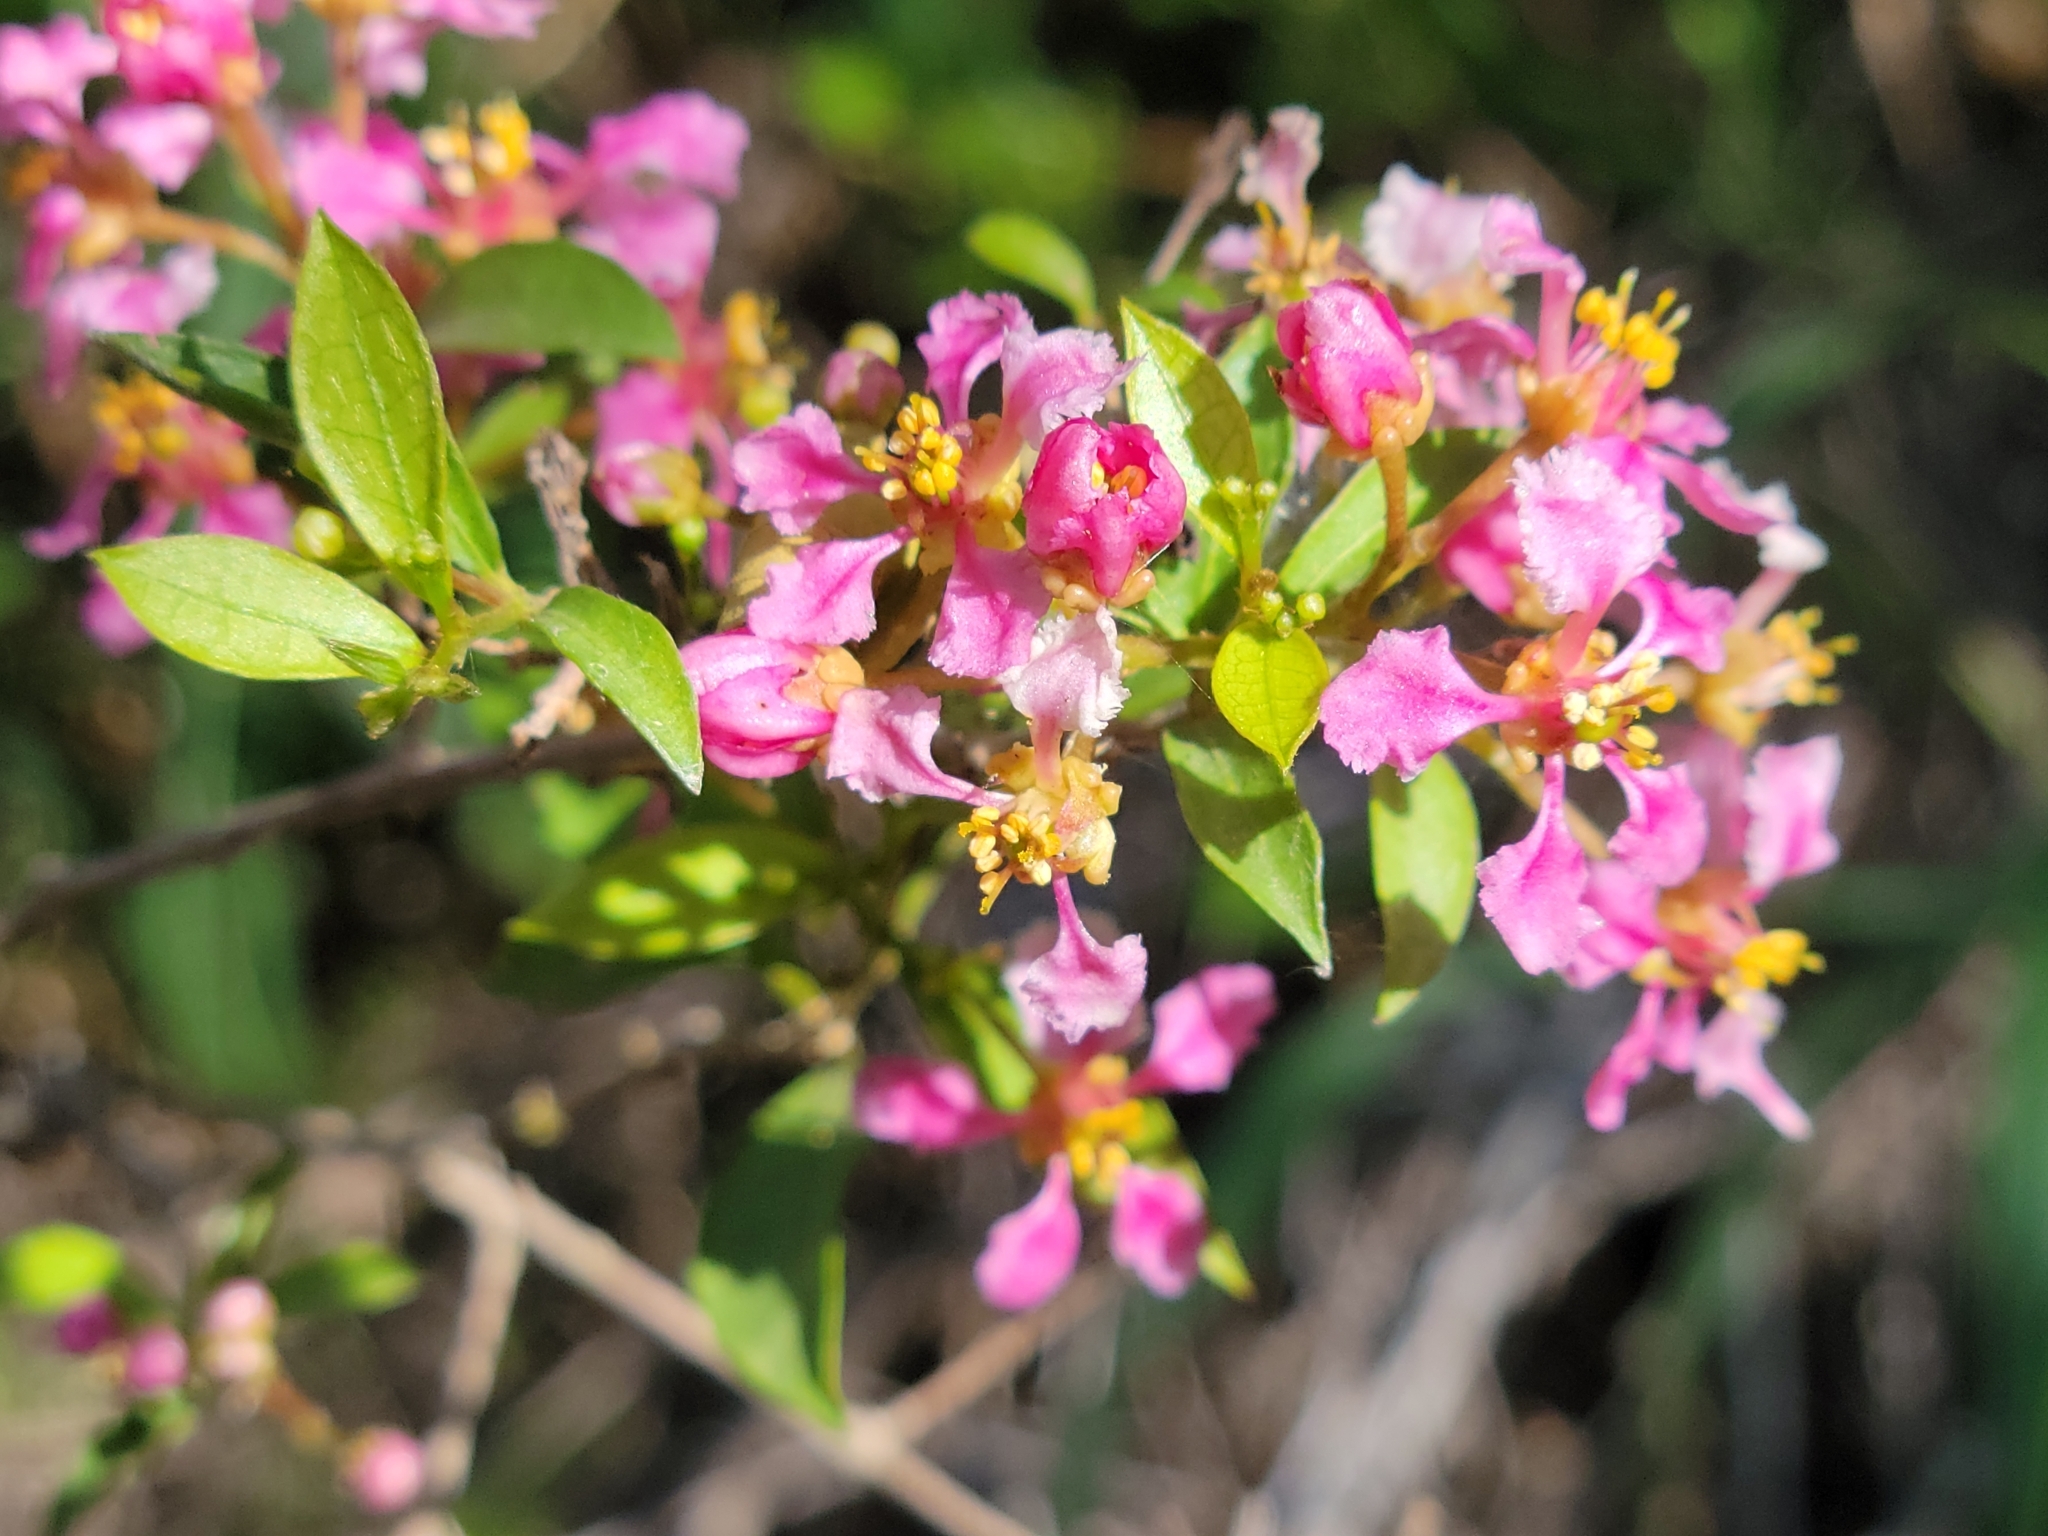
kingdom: Plantae
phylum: Tracheophyta
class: Magnoliopsida
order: Malpighiales
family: Malpighiaceae
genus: Malpighia
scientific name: Malpighia emarginata
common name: Barbados cherry
